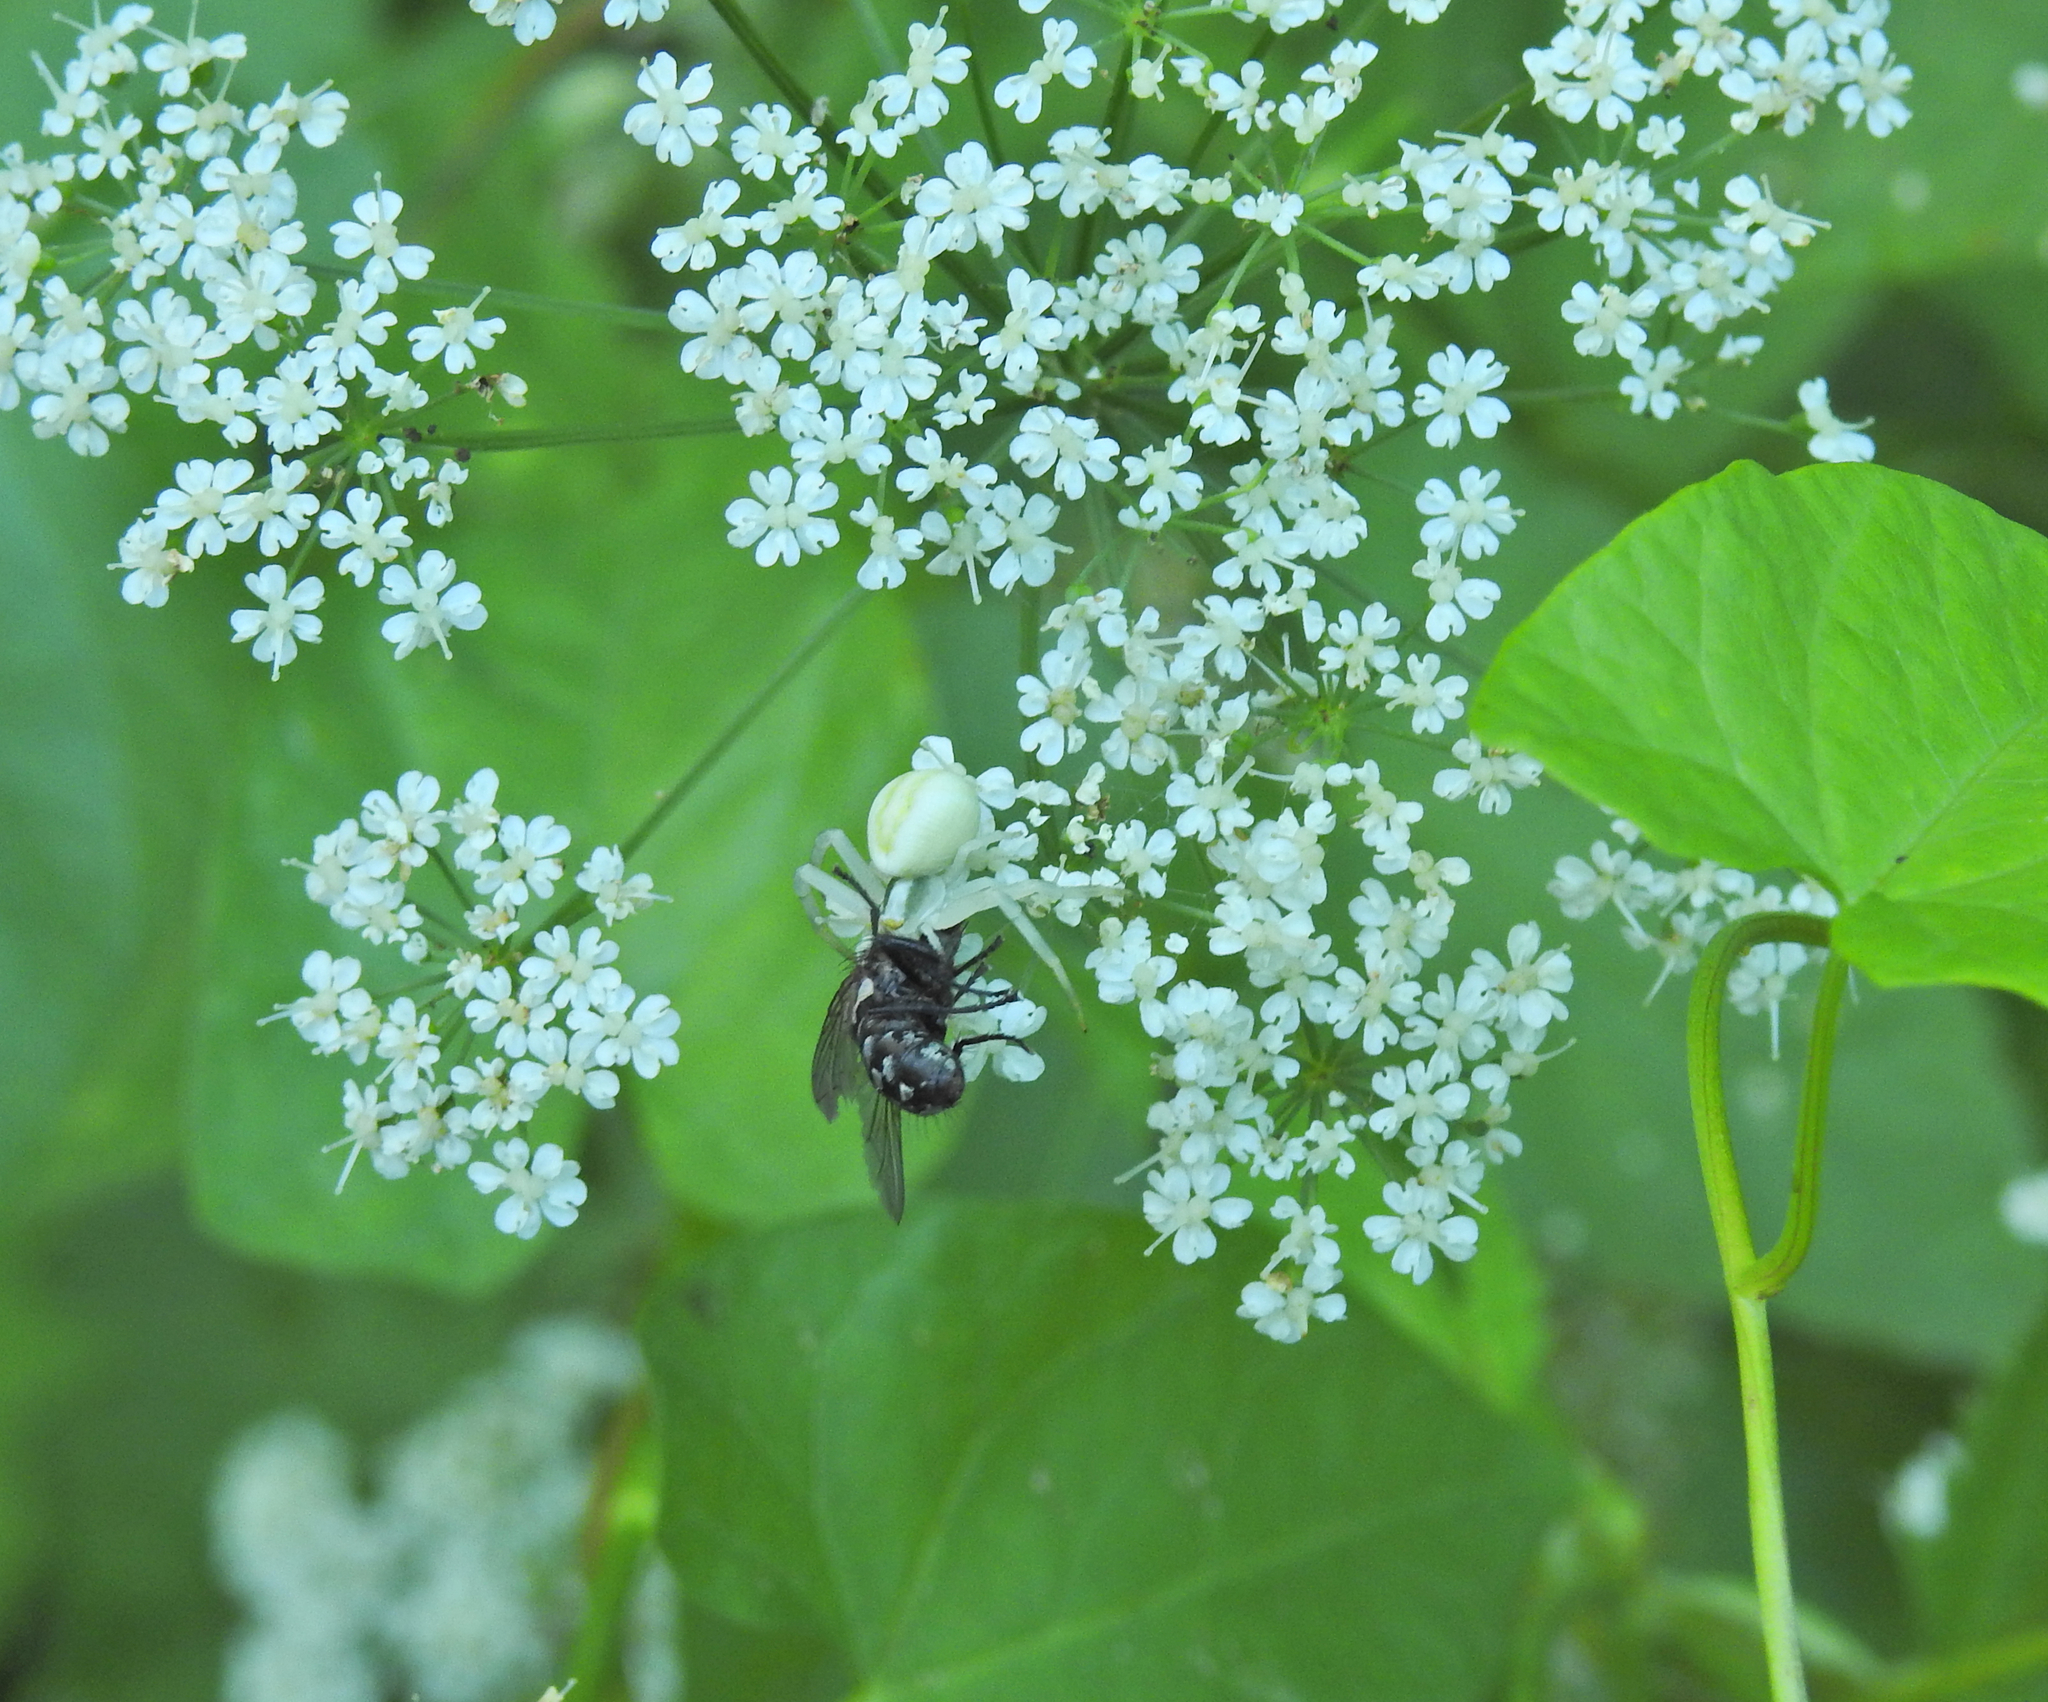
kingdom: Animalia
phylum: Arthropoda
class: Arachnida
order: Araneae
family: Thomisidae
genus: Misumena
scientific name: Misumena vatia
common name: Goldenrod crab spider
